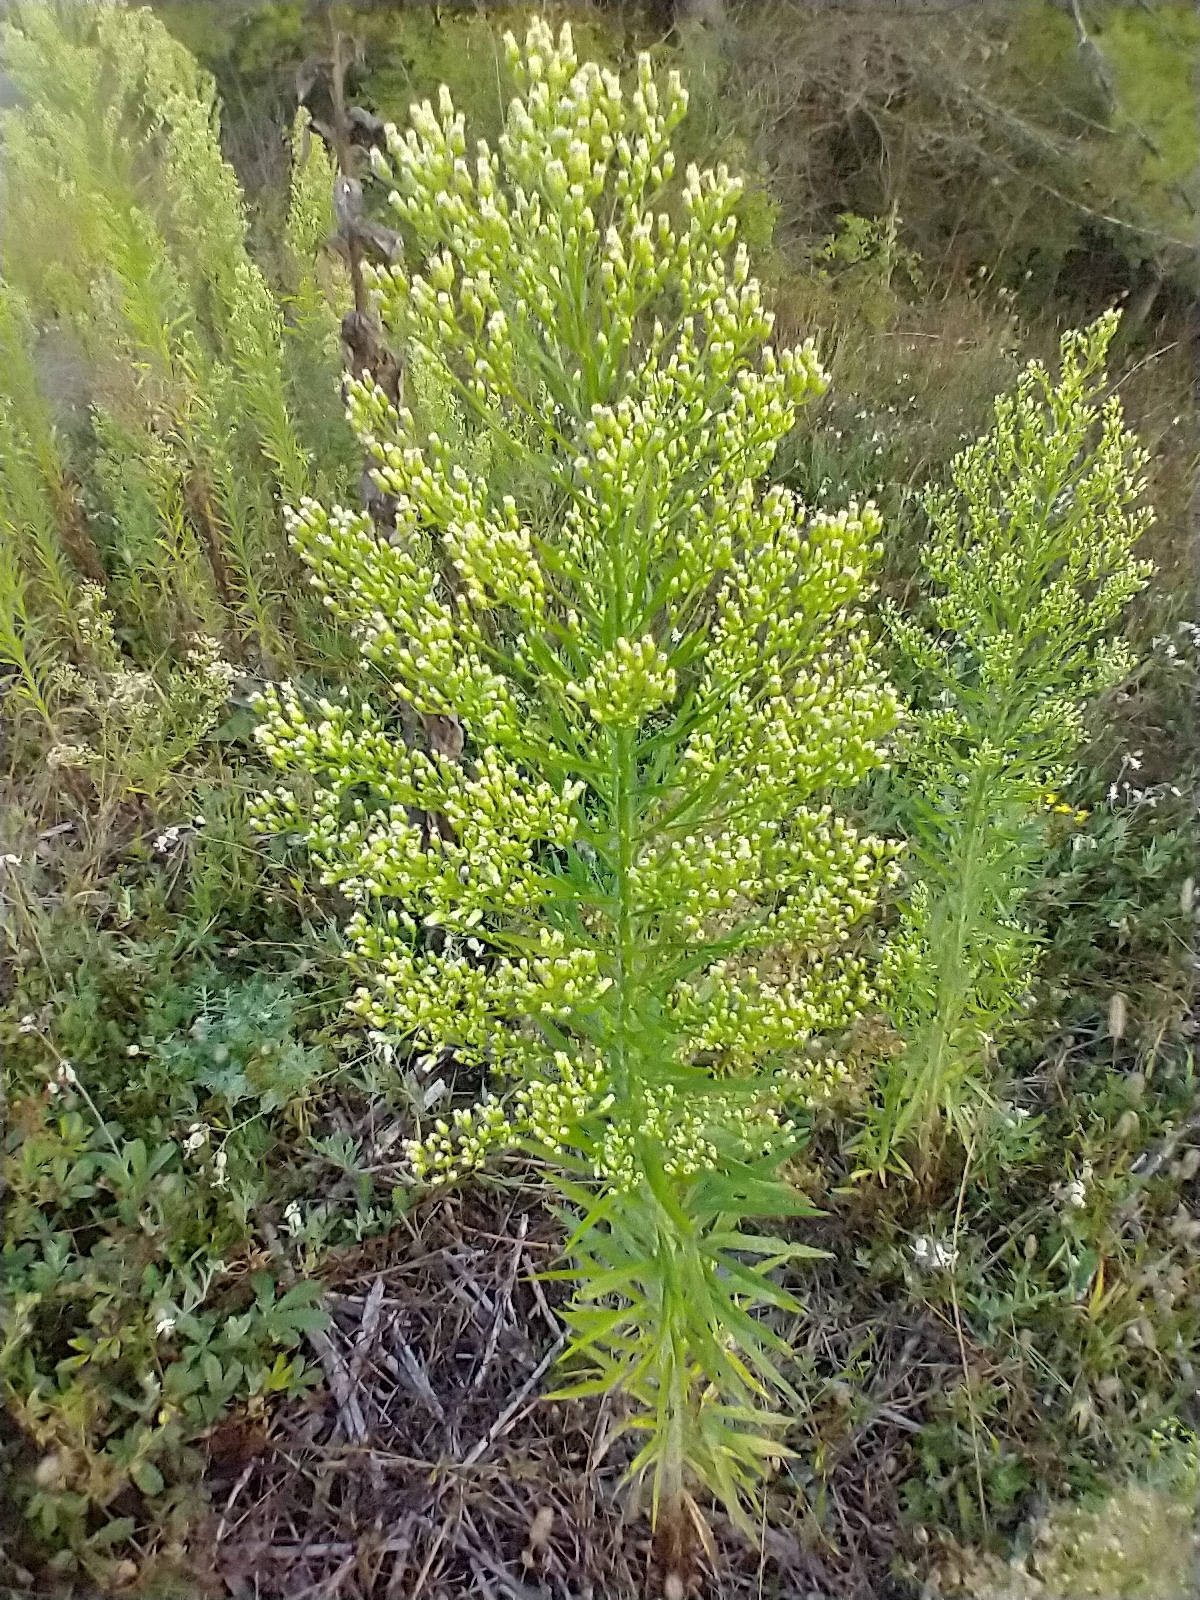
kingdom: Plantae
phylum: Tracheophyta
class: Magnoliopsida
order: Asterales
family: Asteraceae
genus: Erigeron
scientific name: Erigeron canadensis
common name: Canadian fleabane
